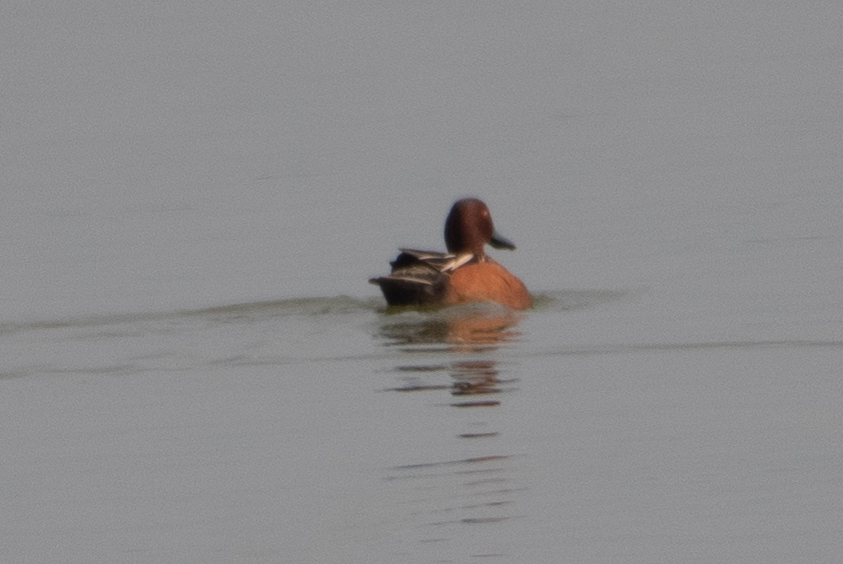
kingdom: Animalia
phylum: Chordata
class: Aves
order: Anseriformes
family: Anatidae
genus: Spatula
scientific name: Spatula cyanoptera
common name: Cinnamon teal
